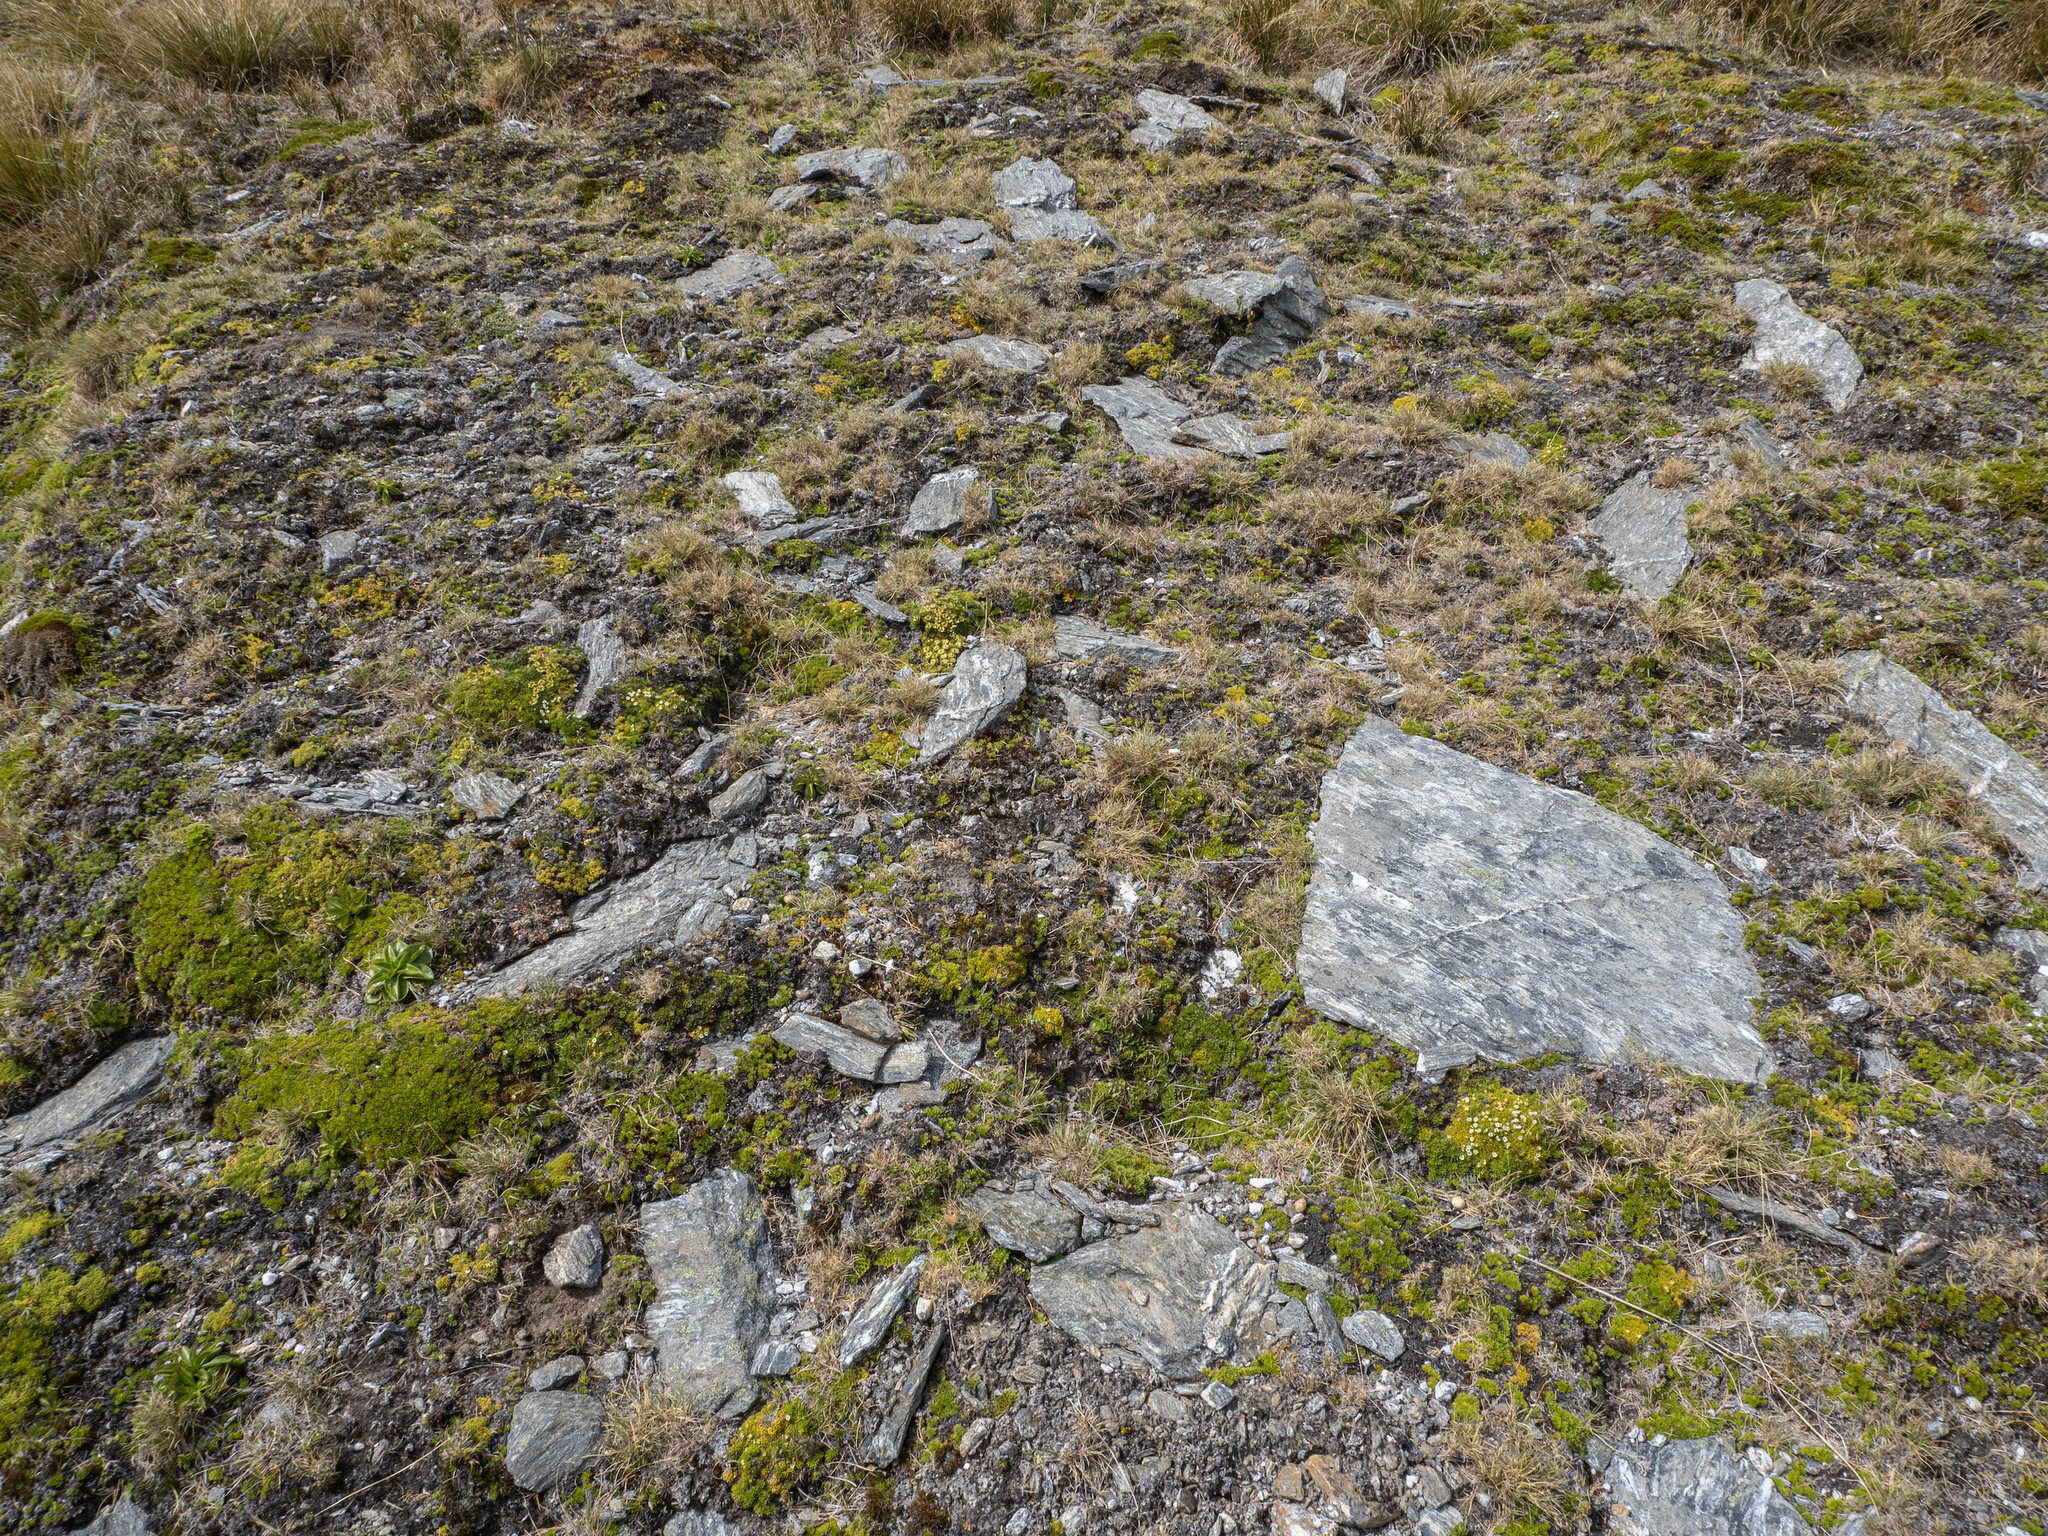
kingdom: Plantae
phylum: Tracheophyta
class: Magnoliopsida
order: Apiales
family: Apiaceae
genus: Azorella
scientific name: Azorella exigua
